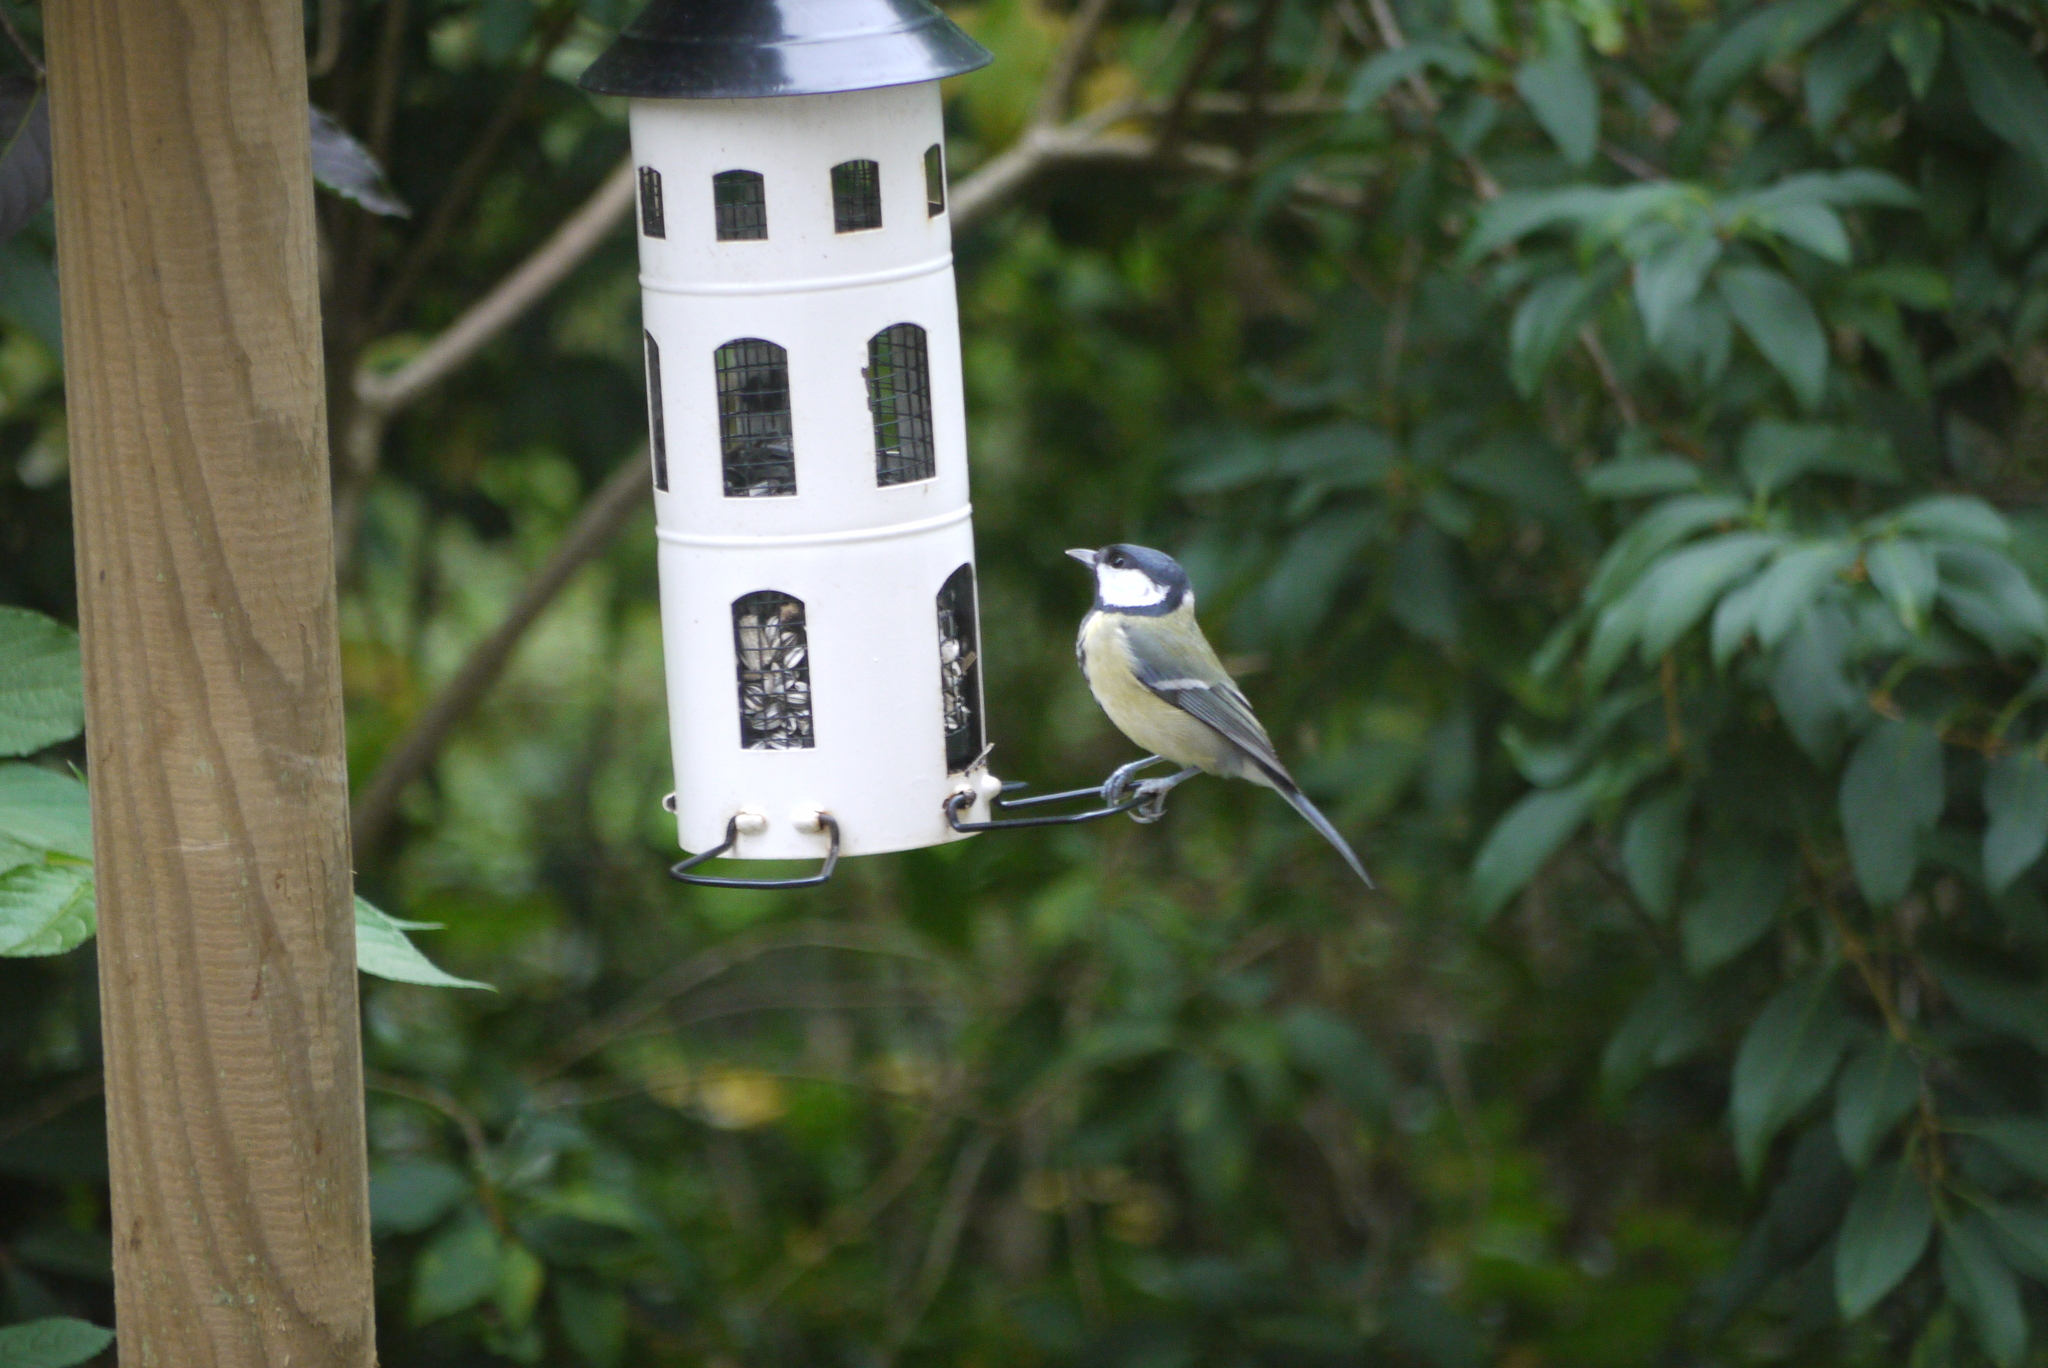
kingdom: Animalia
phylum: Chordata
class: Aves
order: Passeriformes
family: Paridae
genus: Parus
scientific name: Parus major
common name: Great tit
